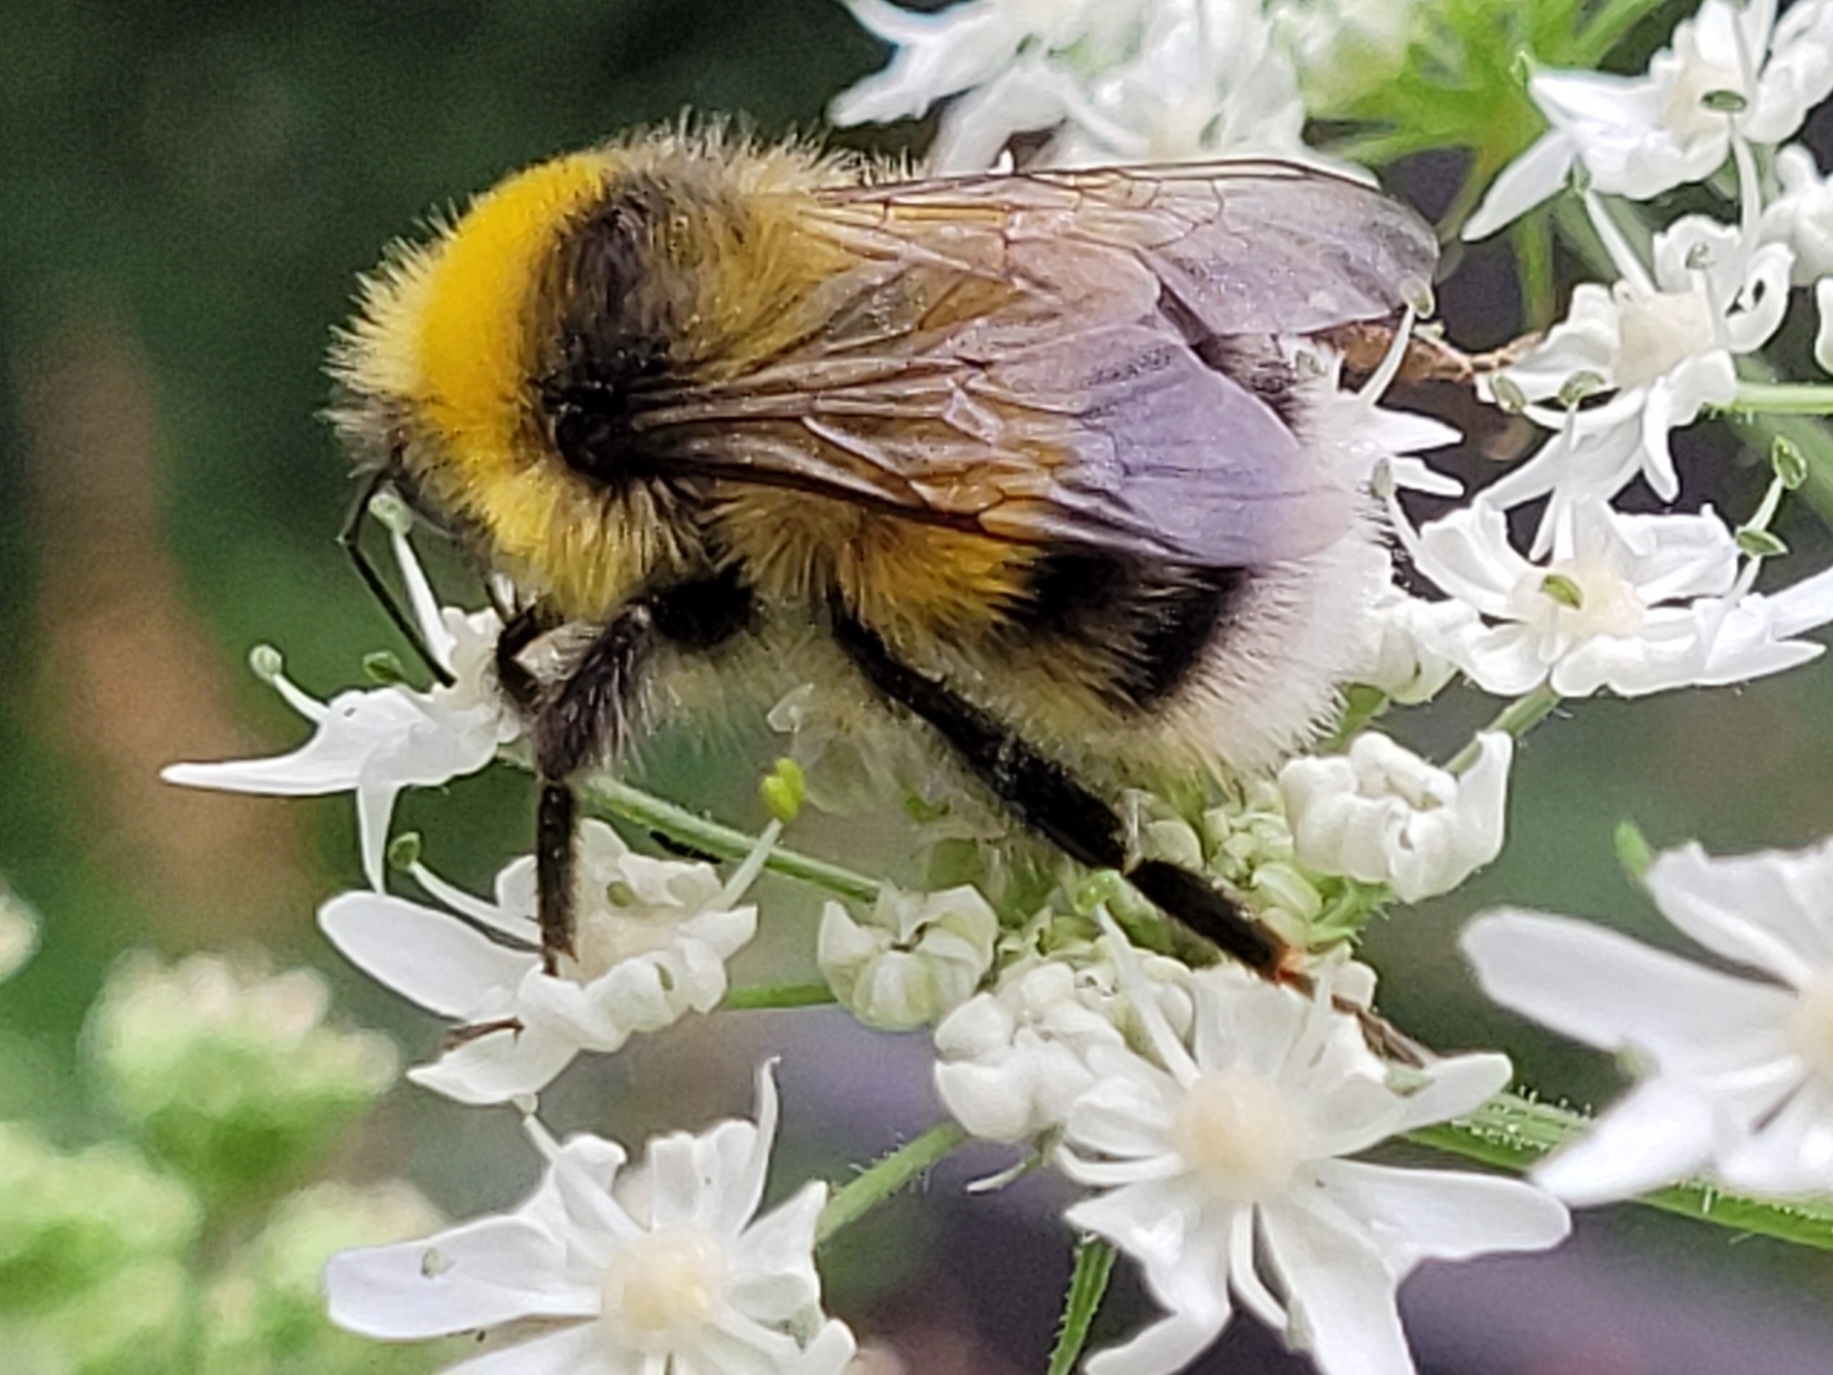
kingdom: Animalia
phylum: Arthropoda
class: Insecta
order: Hymenoptera
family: Apidae
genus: Bombus
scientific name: Bombus lucorum
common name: White-tailed bumblebee
